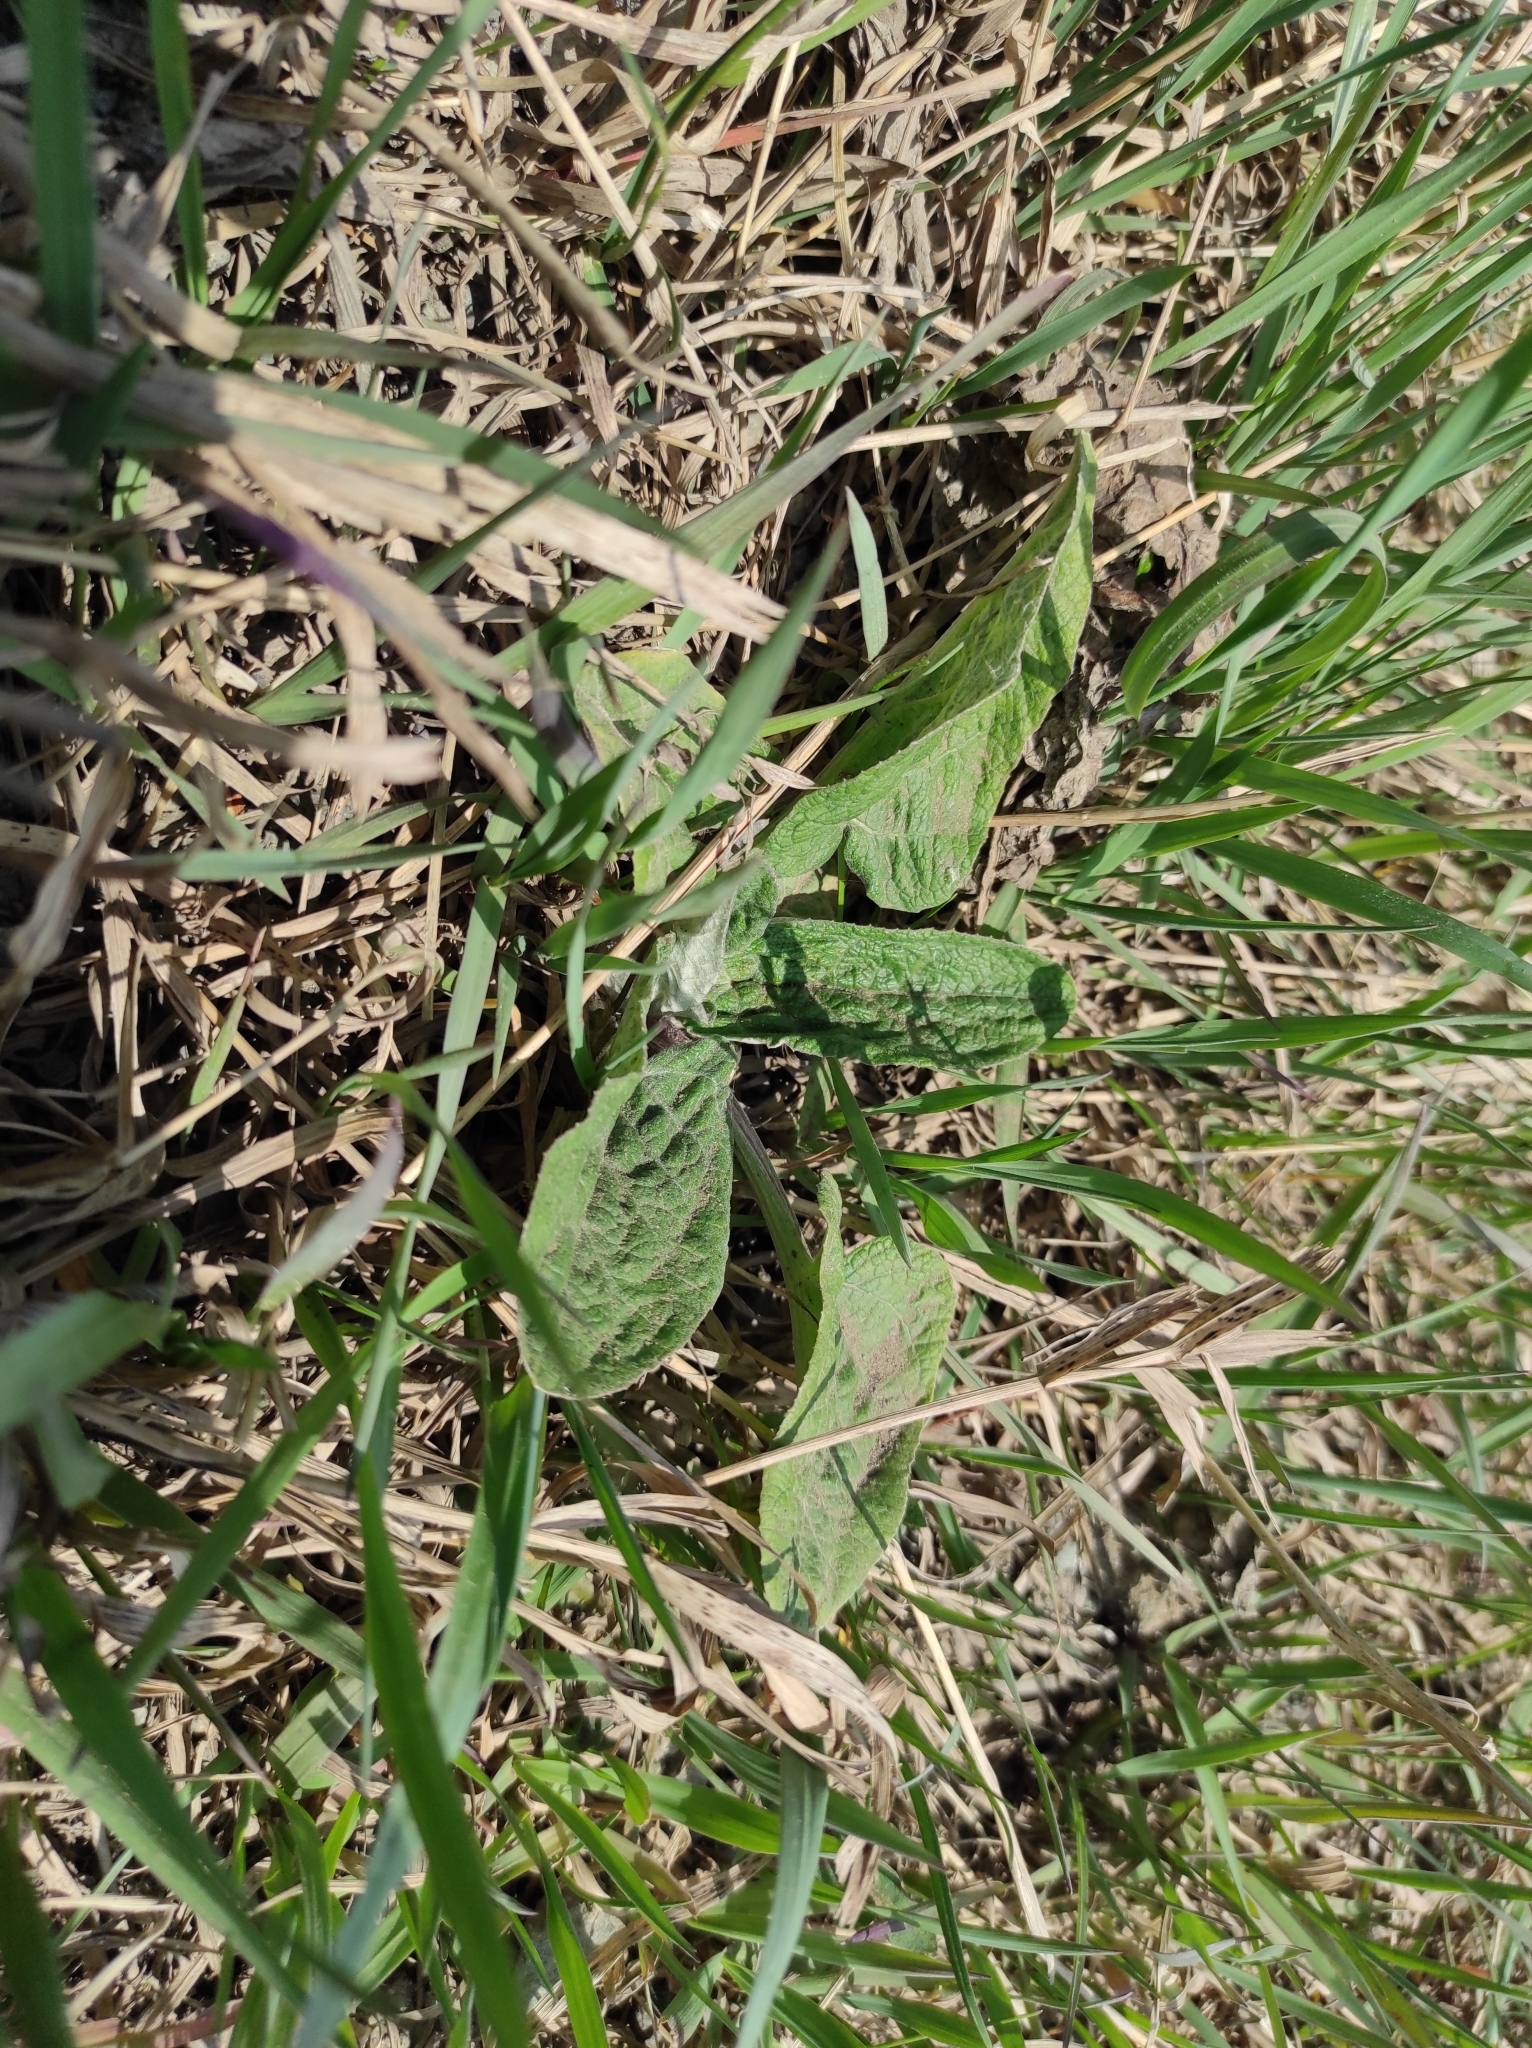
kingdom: Plantae
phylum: Tracheophyta
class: Magnoliopsida
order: Asterales
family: Asteraceae
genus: Arctium
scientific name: Arctium
